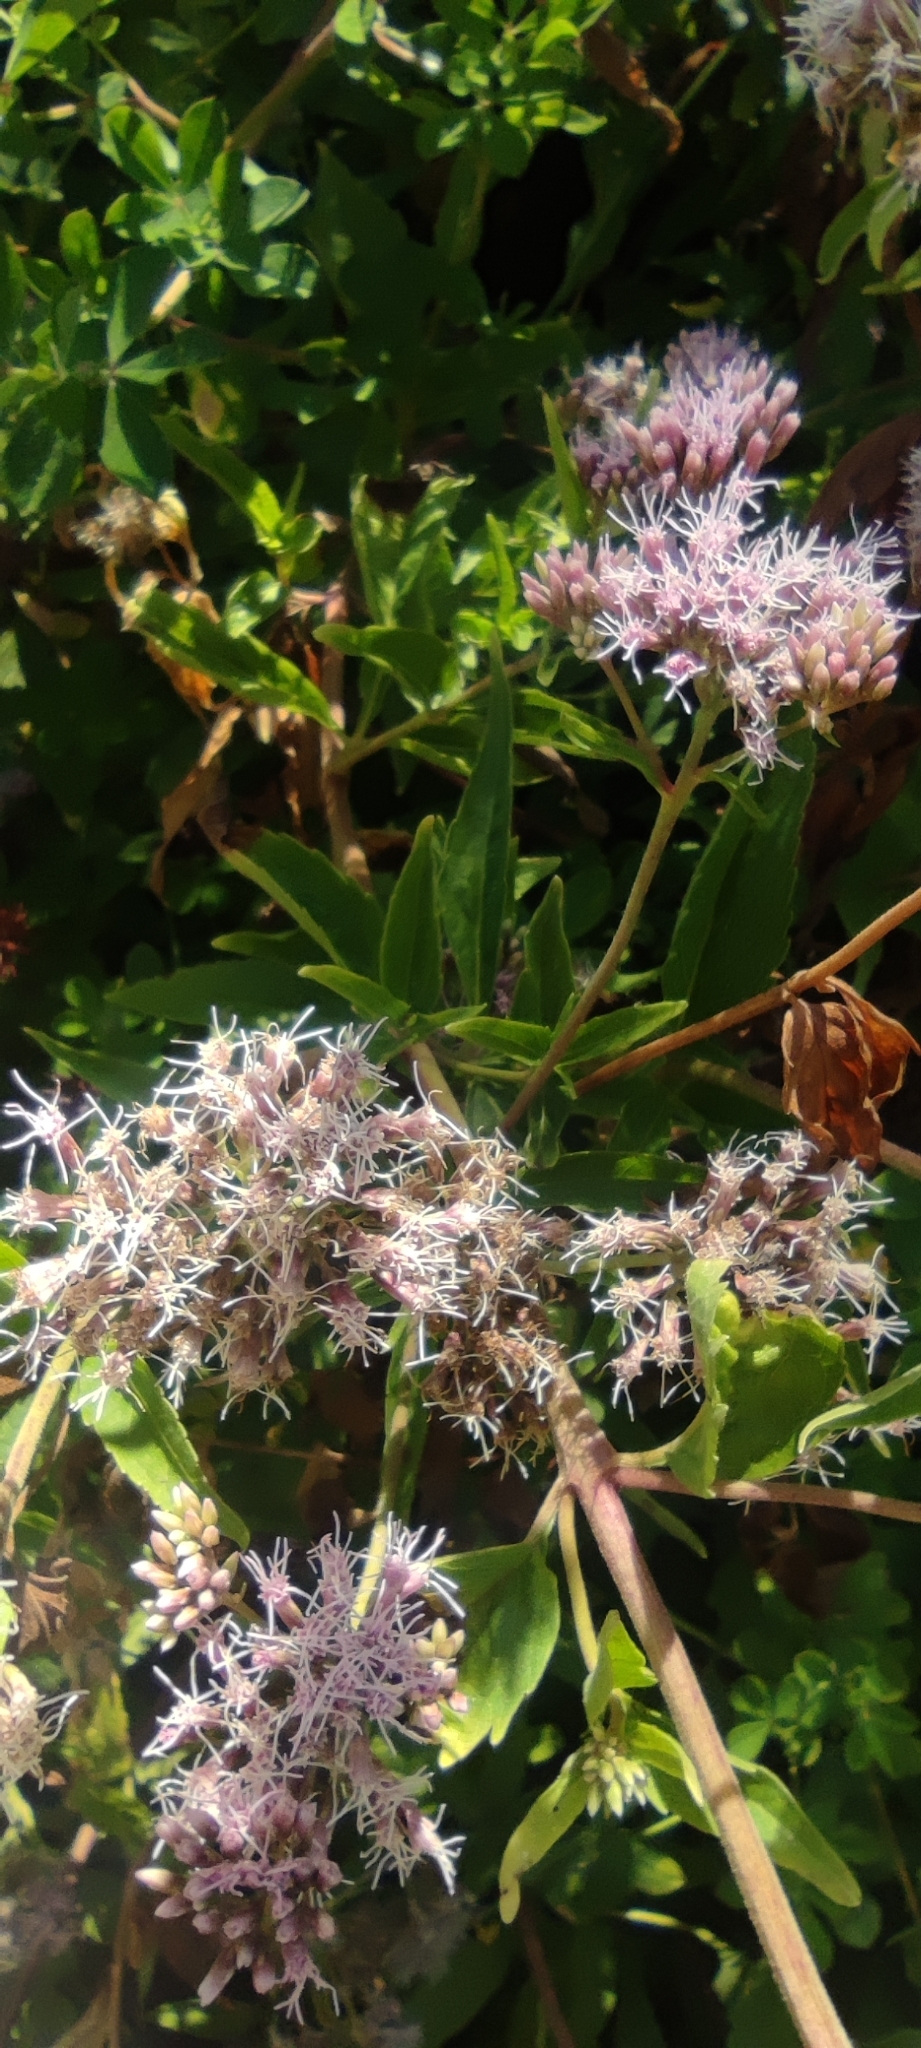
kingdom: Plantae
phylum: Tracheophyta
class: Magnoliopsida
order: Asterales
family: Asteraceae
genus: Eupatorium
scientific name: Eupatorium cannabinum
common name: Hemp-agrimony
